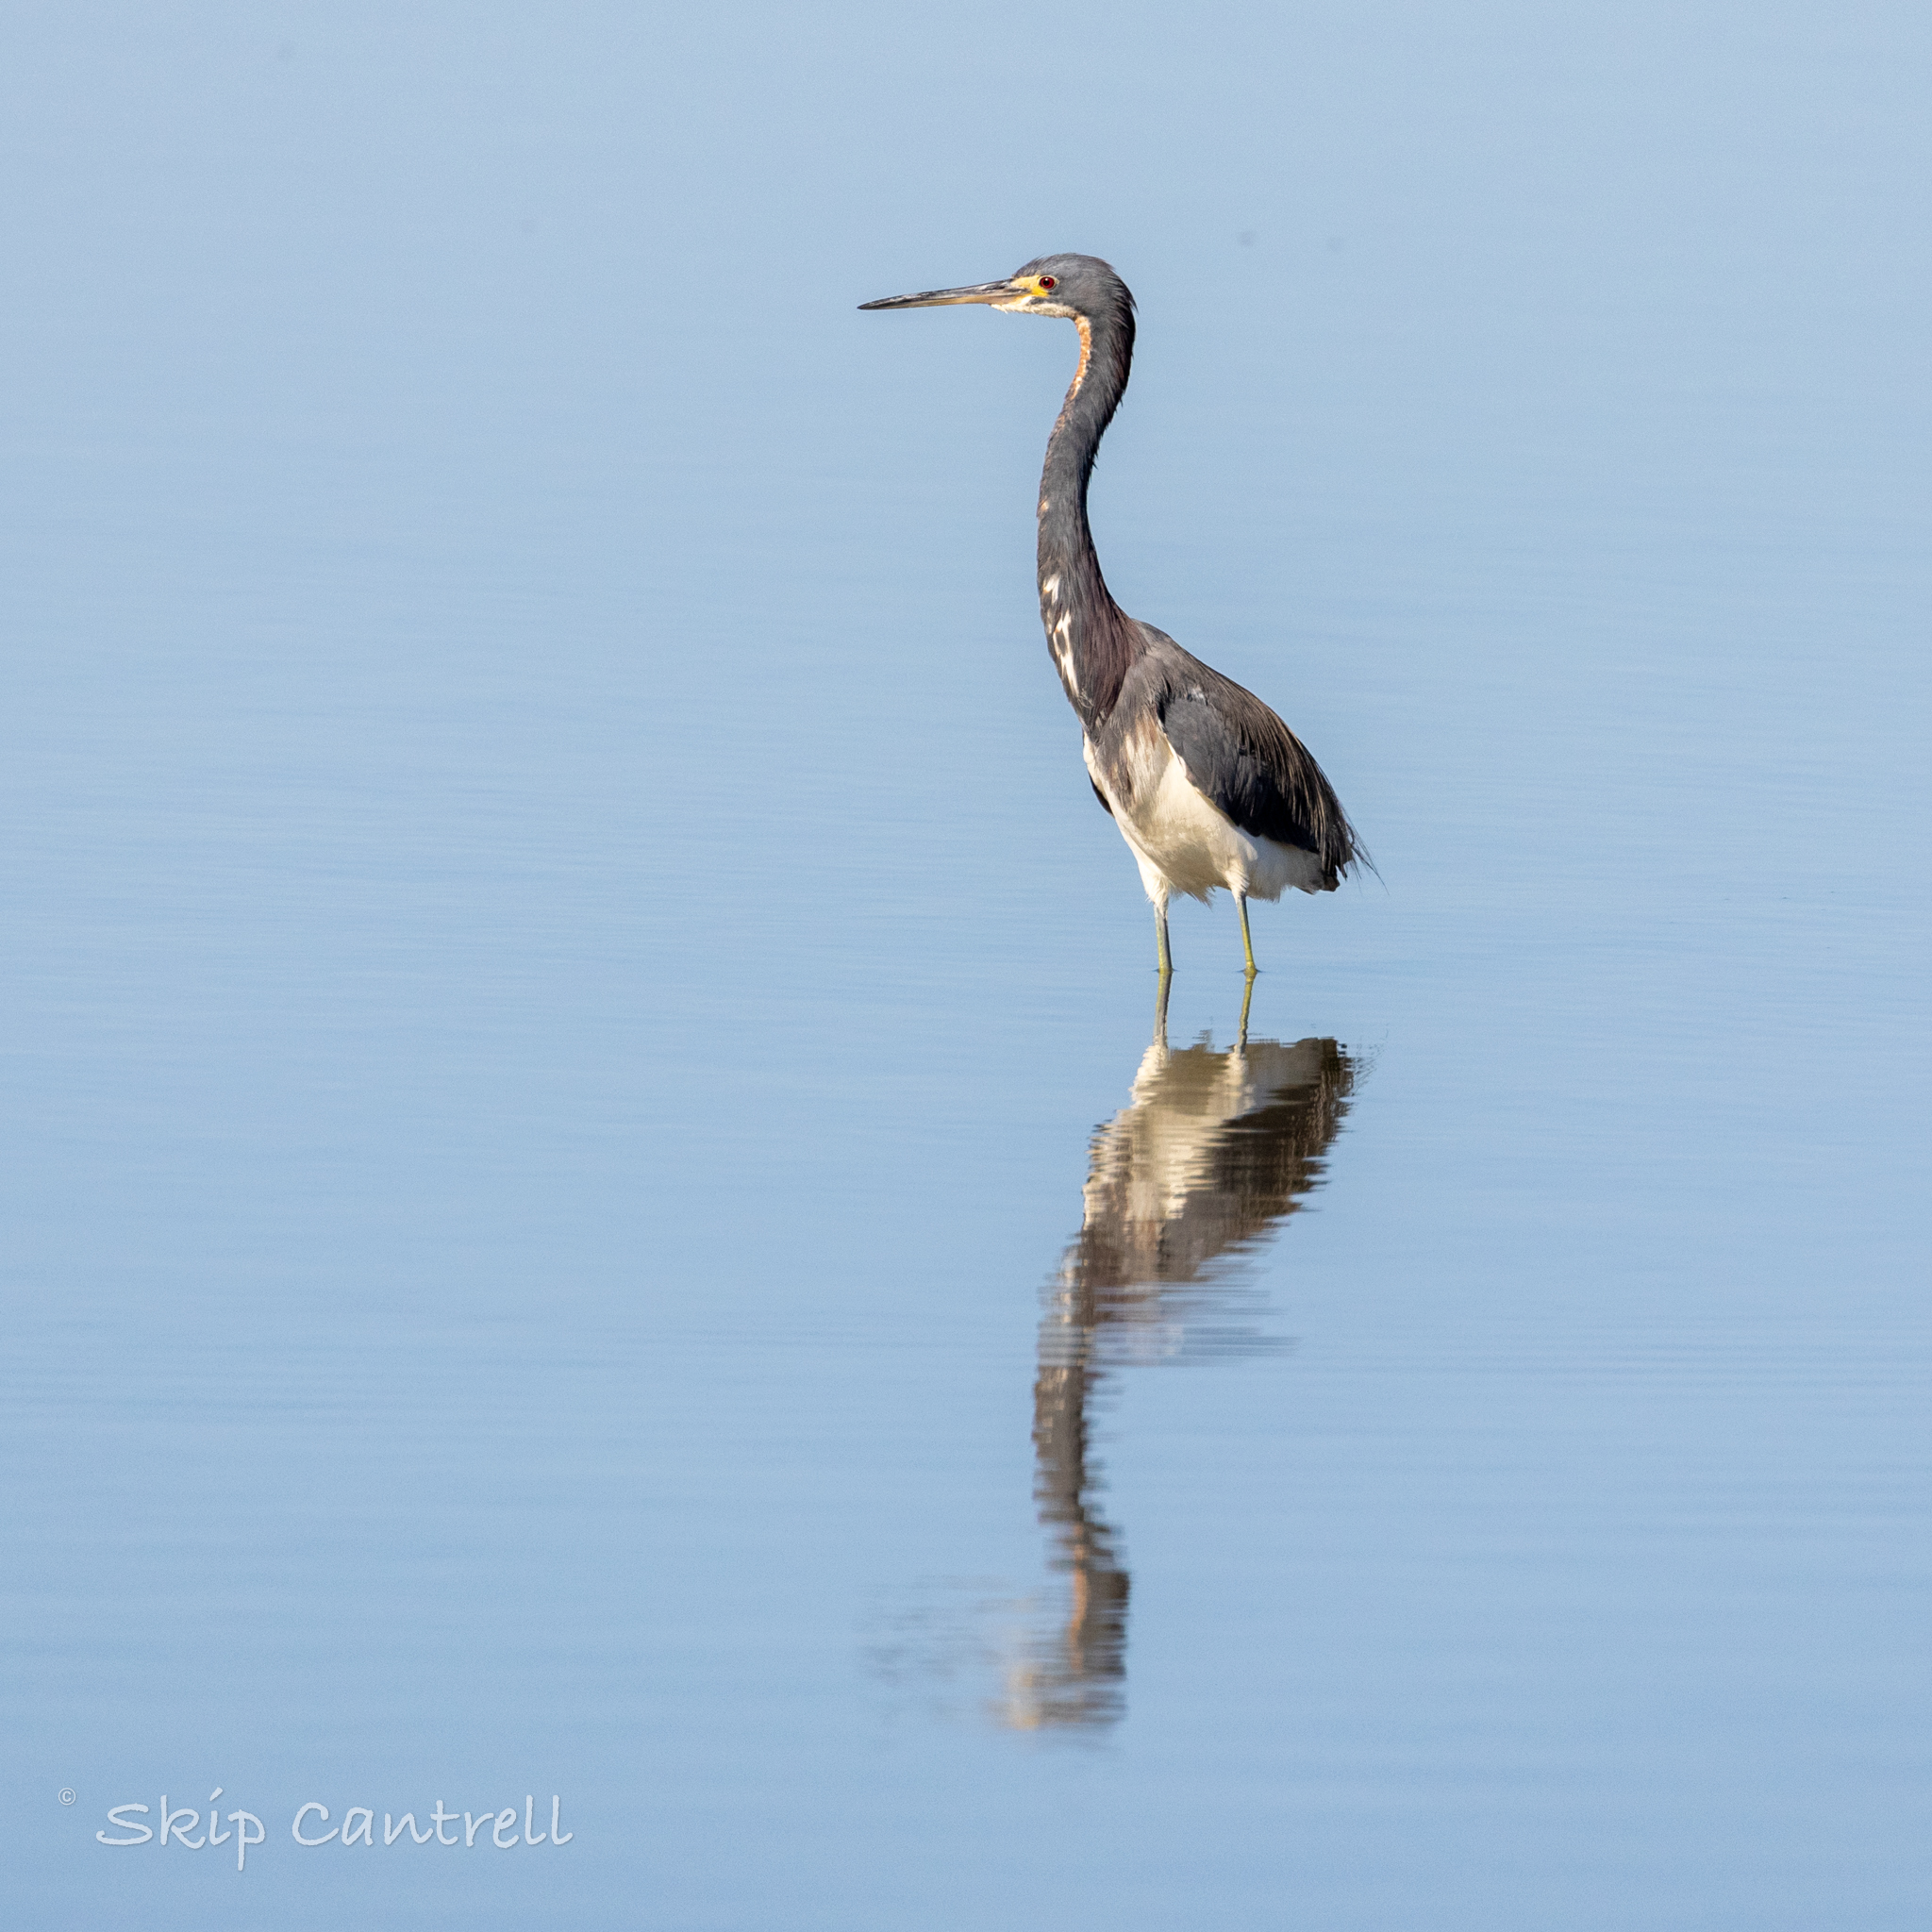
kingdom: Animalia
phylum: Chordata
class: Aves
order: Pelecaniformes
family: Ardeidae
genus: Egretta
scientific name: Egretta tricolor
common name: Tricolored heron
